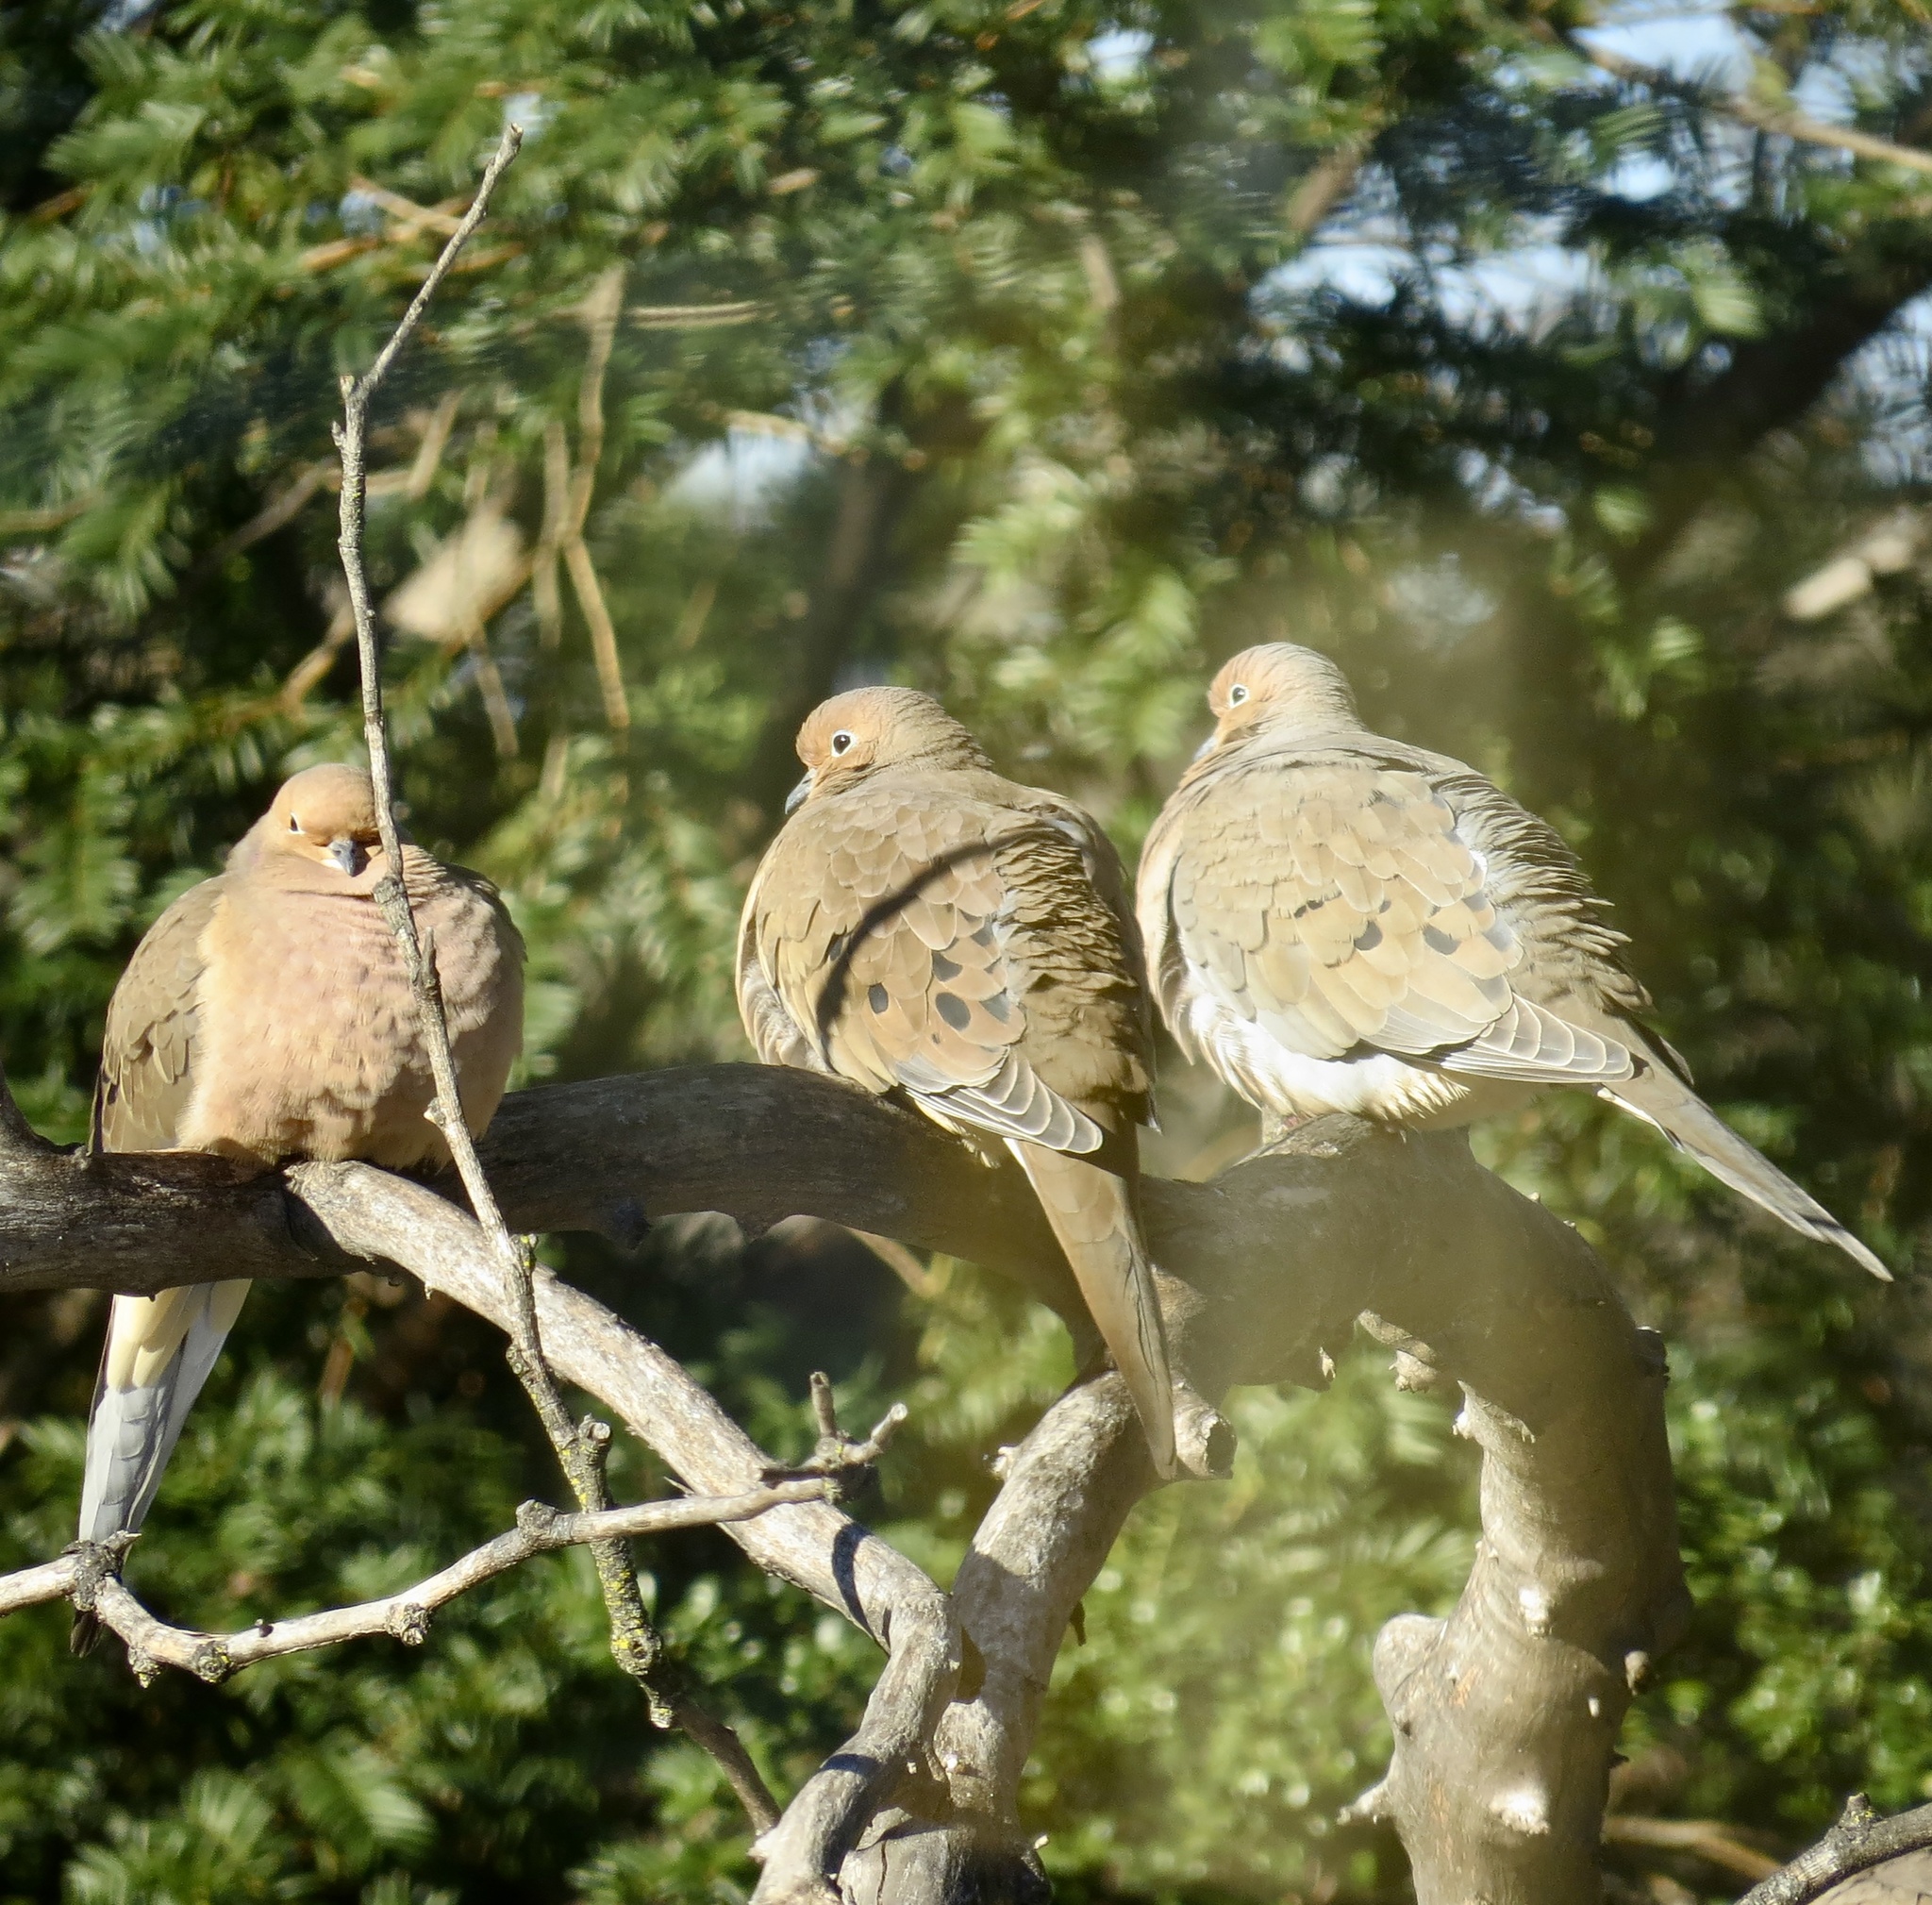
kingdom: Animalia
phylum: Chordata
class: Aves
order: Columbiformes
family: Columbidae
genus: Zenaida
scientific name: Zenaida macroura
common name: Mourning dove
